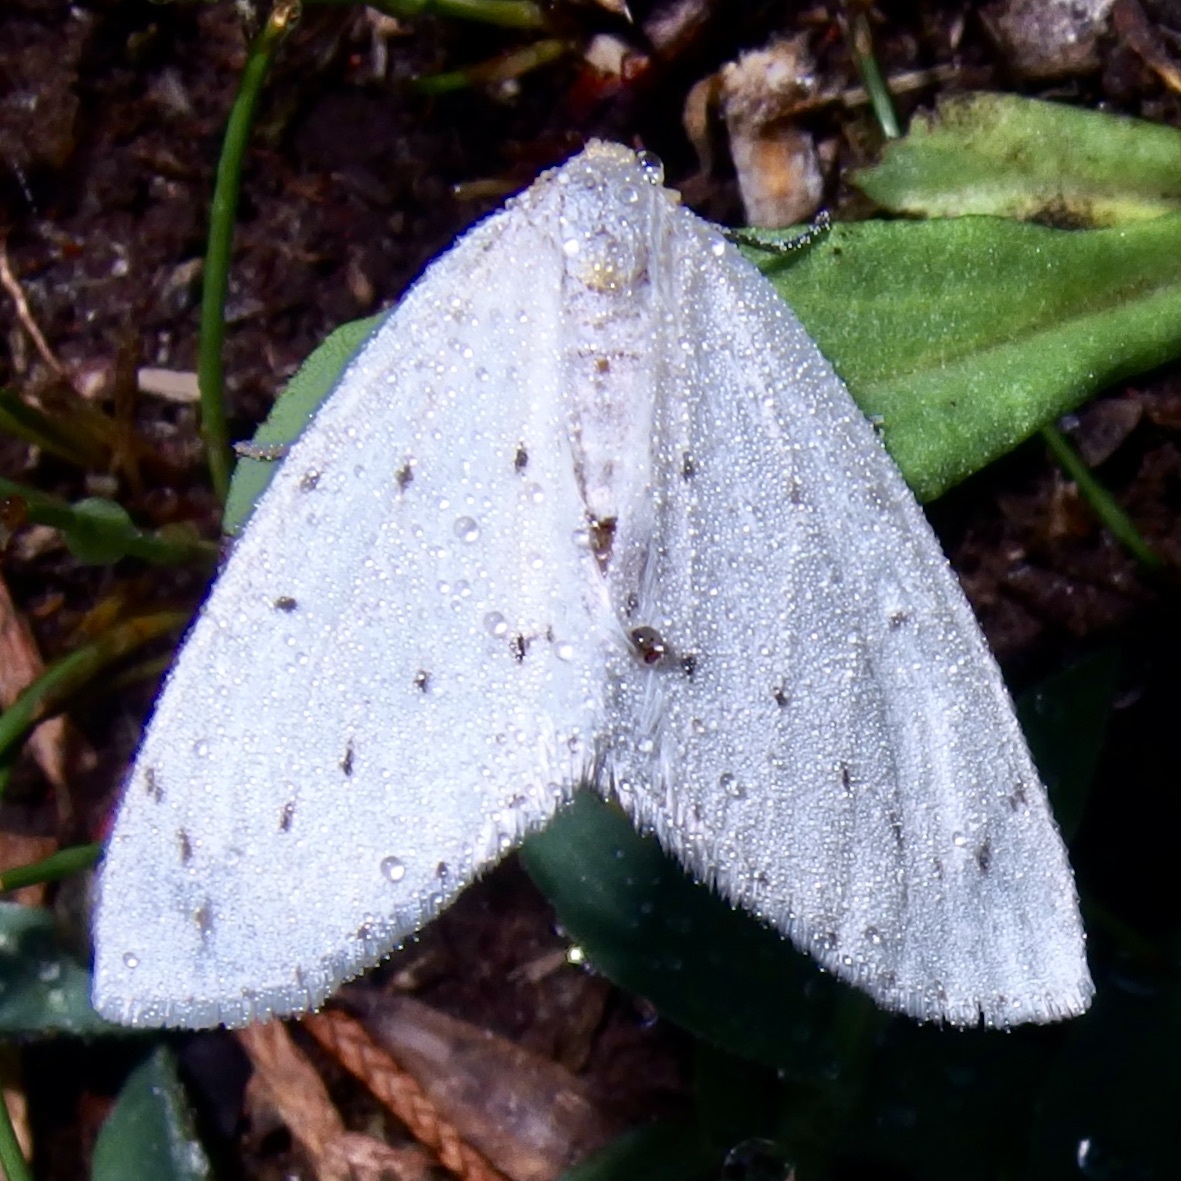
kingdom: Animalia
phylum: Arthropoda
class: Insecta
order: Lepidoptera
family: Geometridae
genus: Cingilia
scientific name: Cingilia orsona
